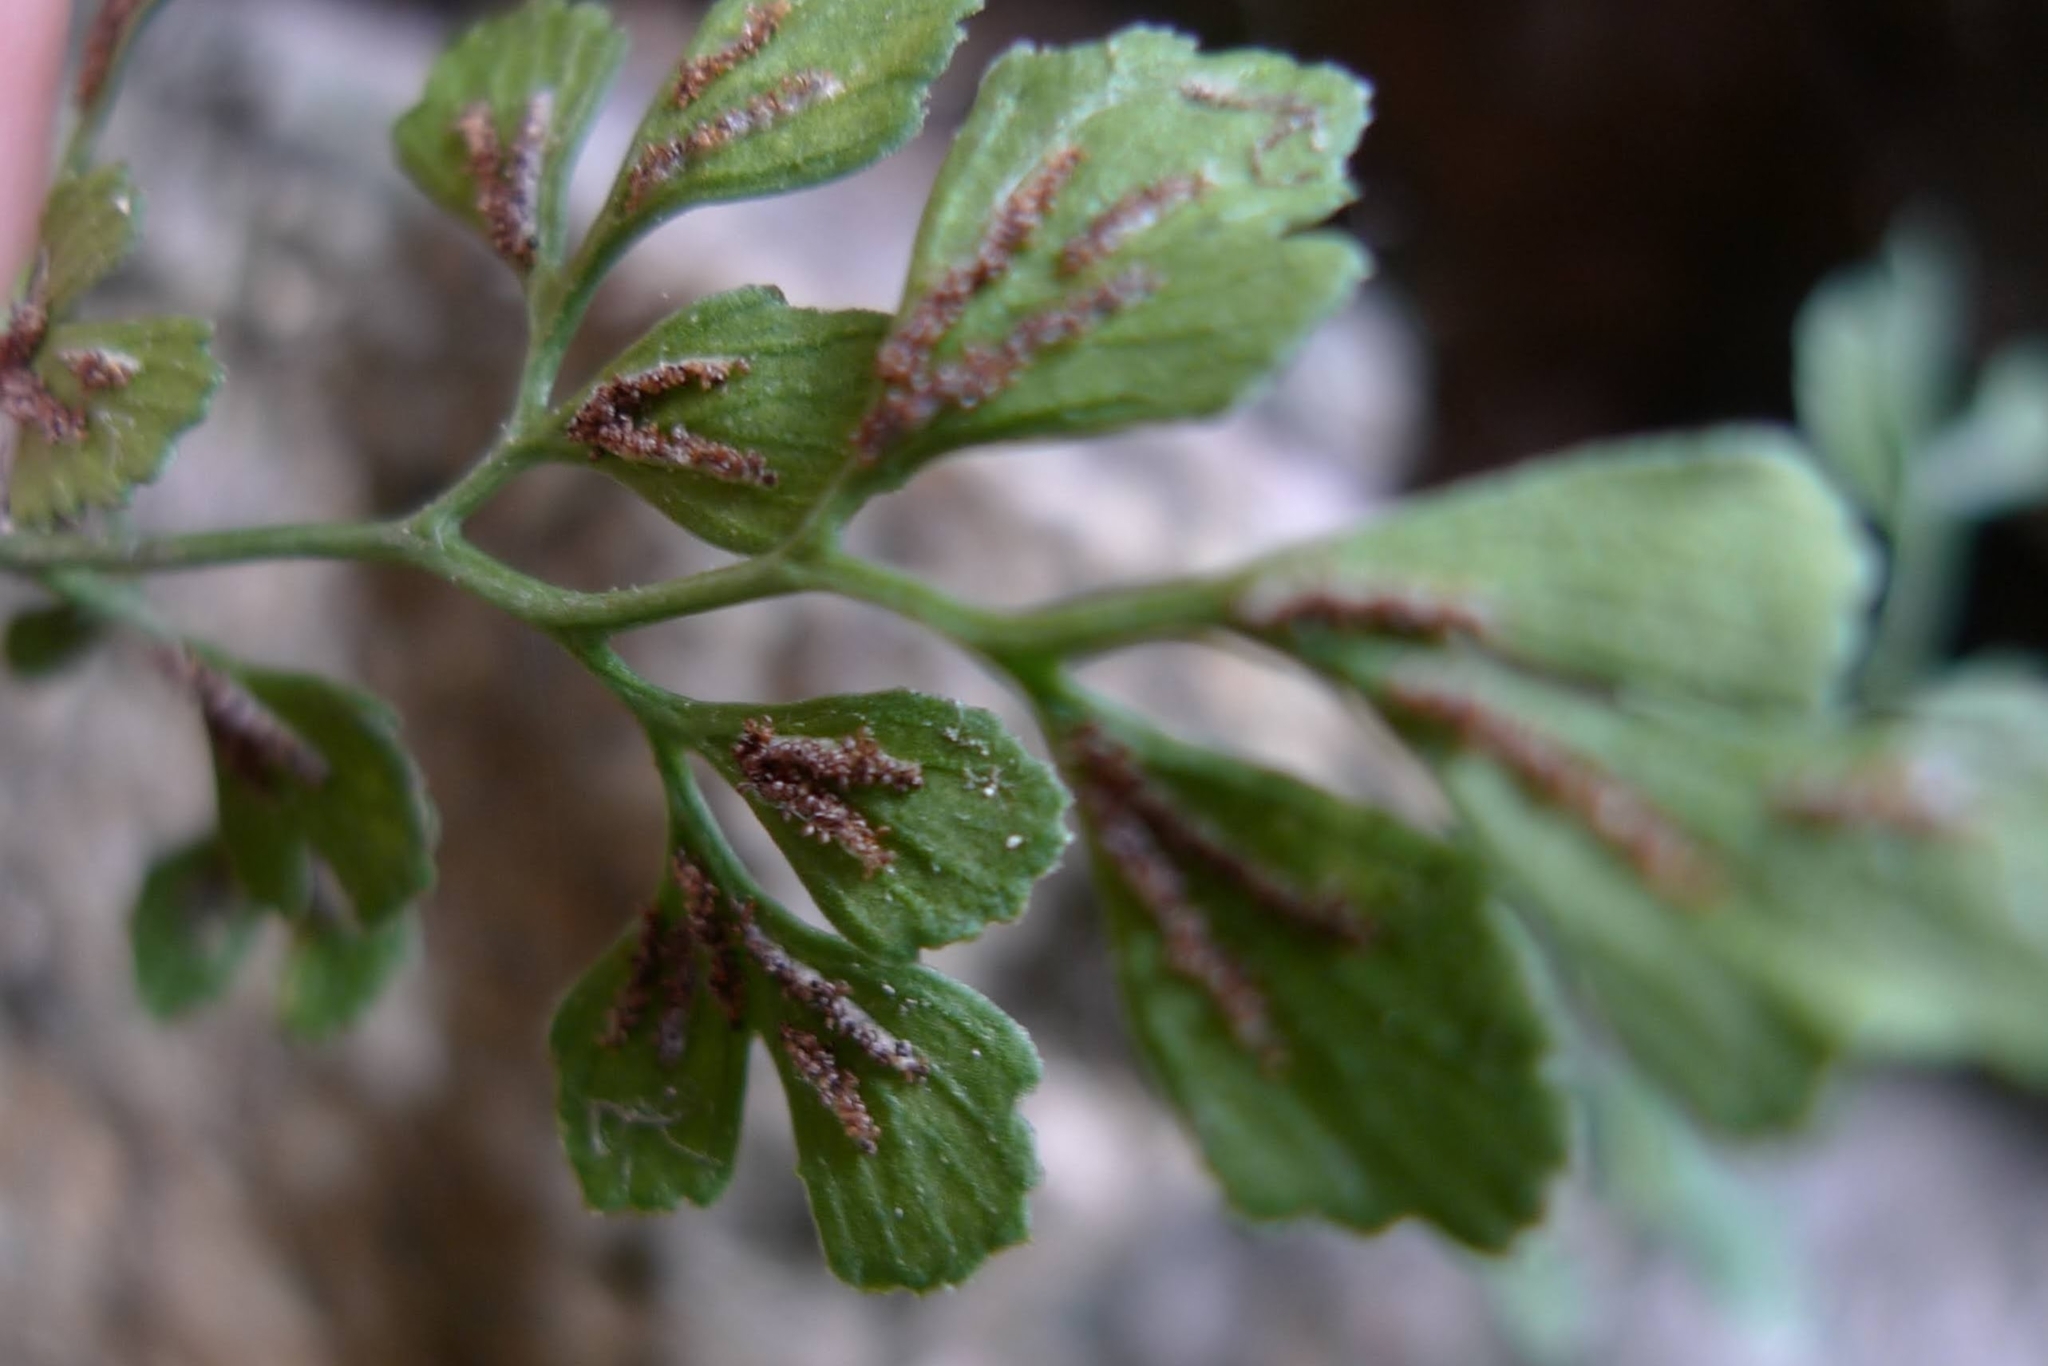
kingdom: Plantae
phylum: Tracheophyta
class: Polypodiopsida
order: Polypodiales
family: Aspleniaceae
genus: Asplenium
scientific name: Asplenium ruta-muraria
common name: Wall-rue
